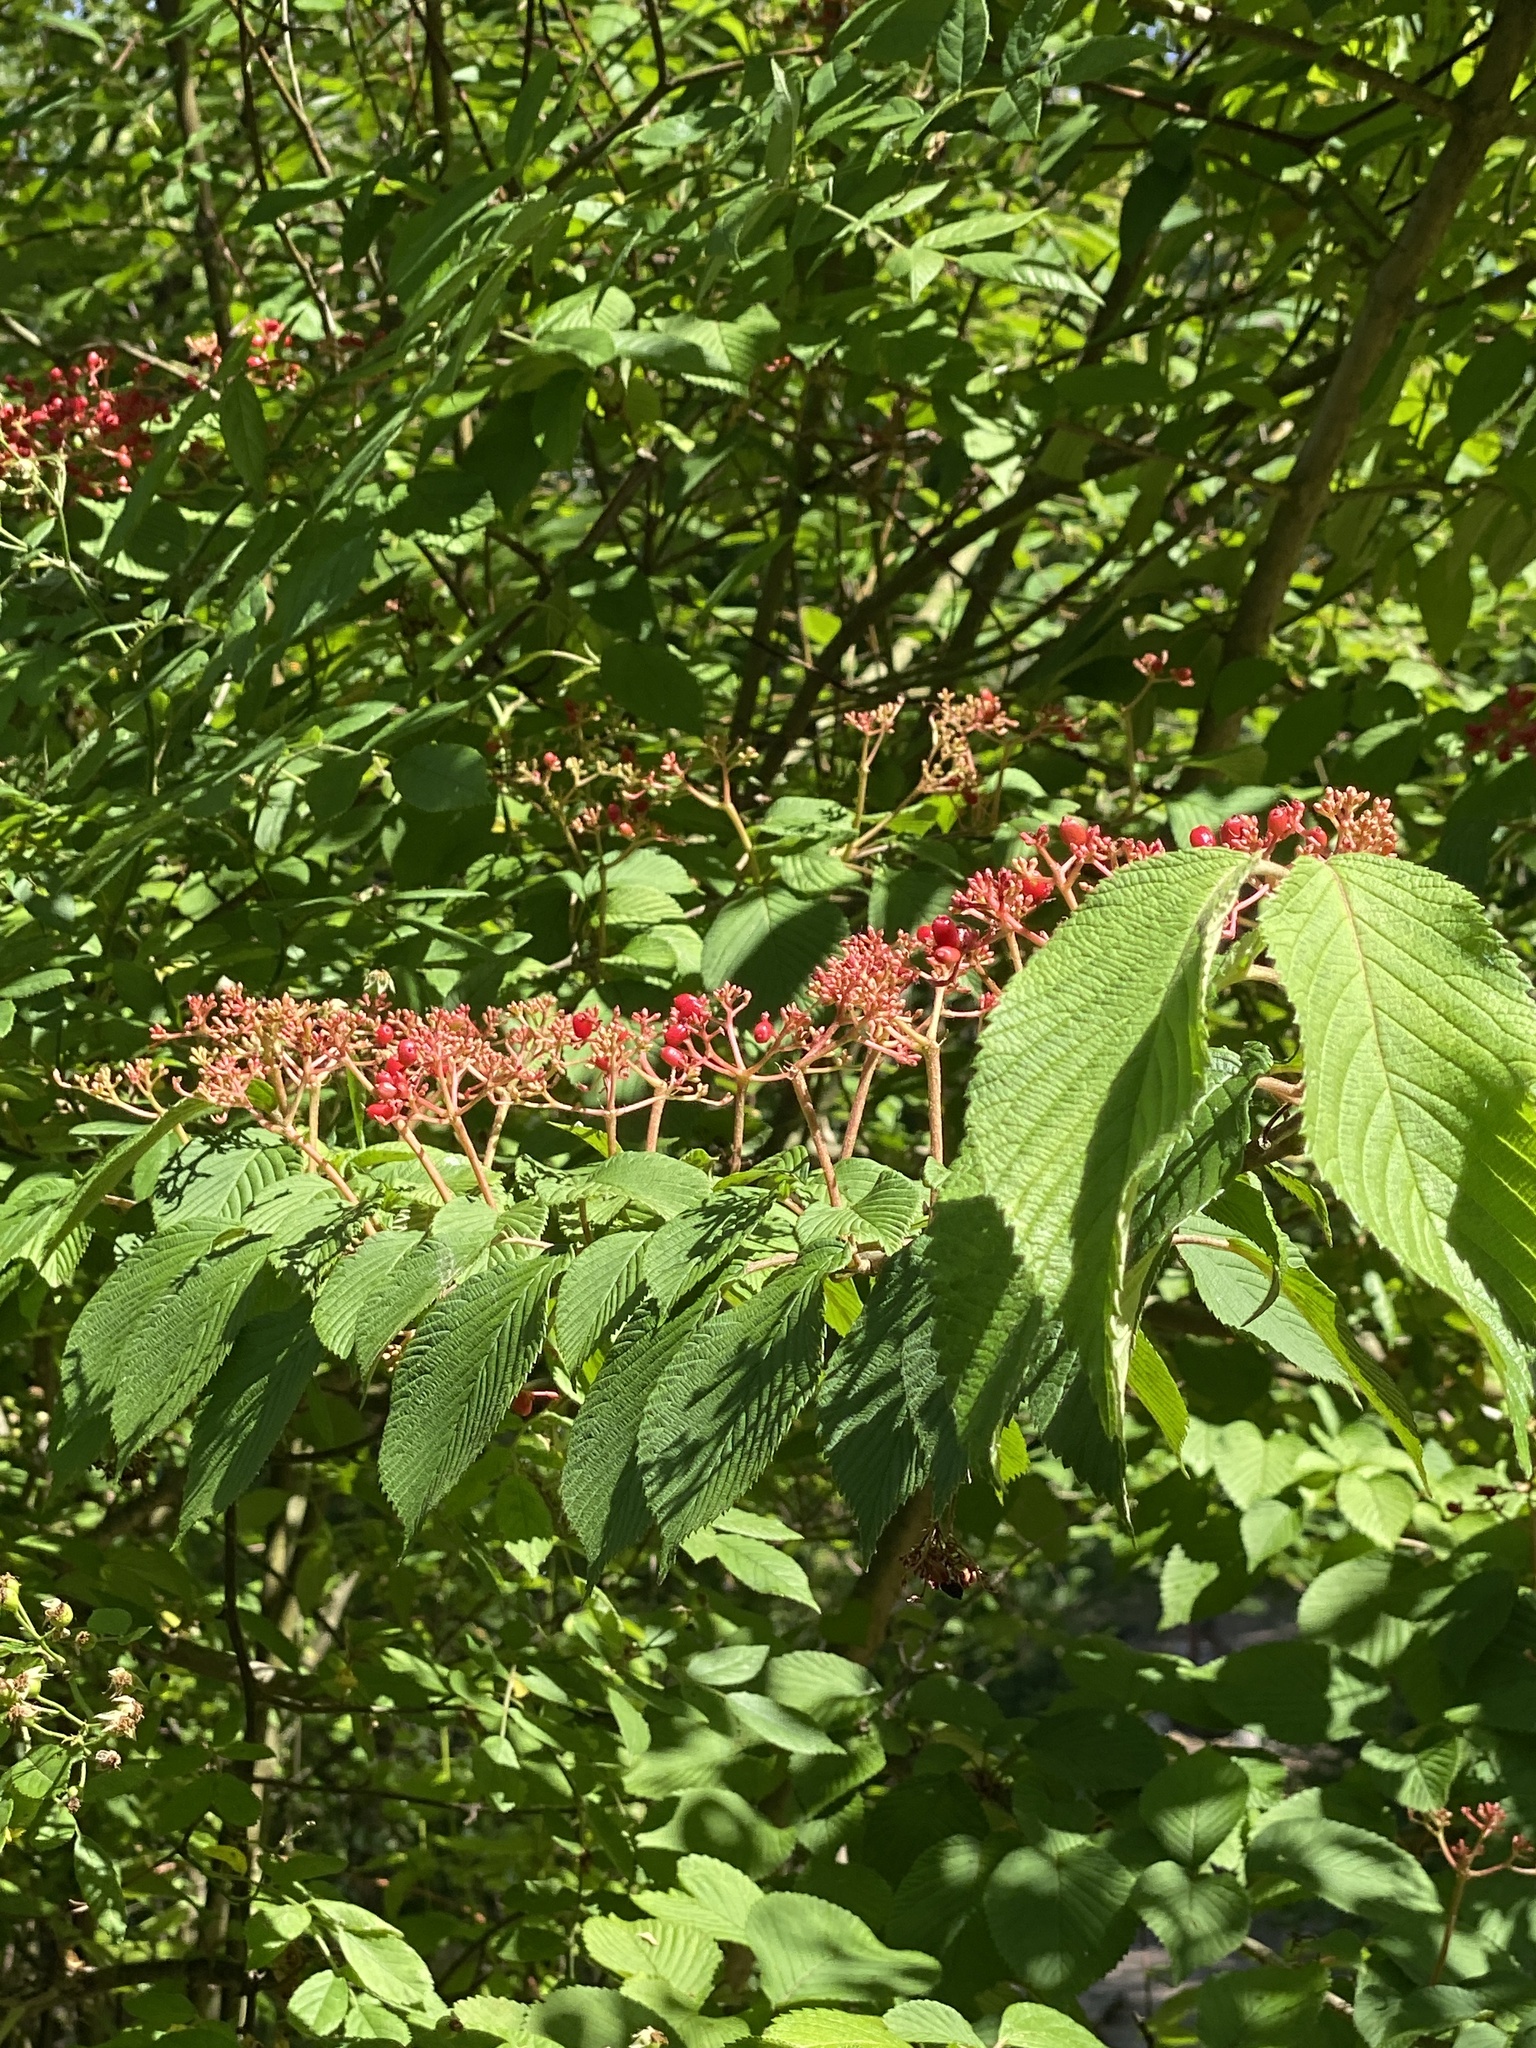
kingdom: Plantae
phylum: Tracheophyta
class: Magnoliopsida
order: Dipsacales
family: Viburnaceae
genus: Viburnum
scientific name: Viburnum plicatum
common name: Japanese snowball
